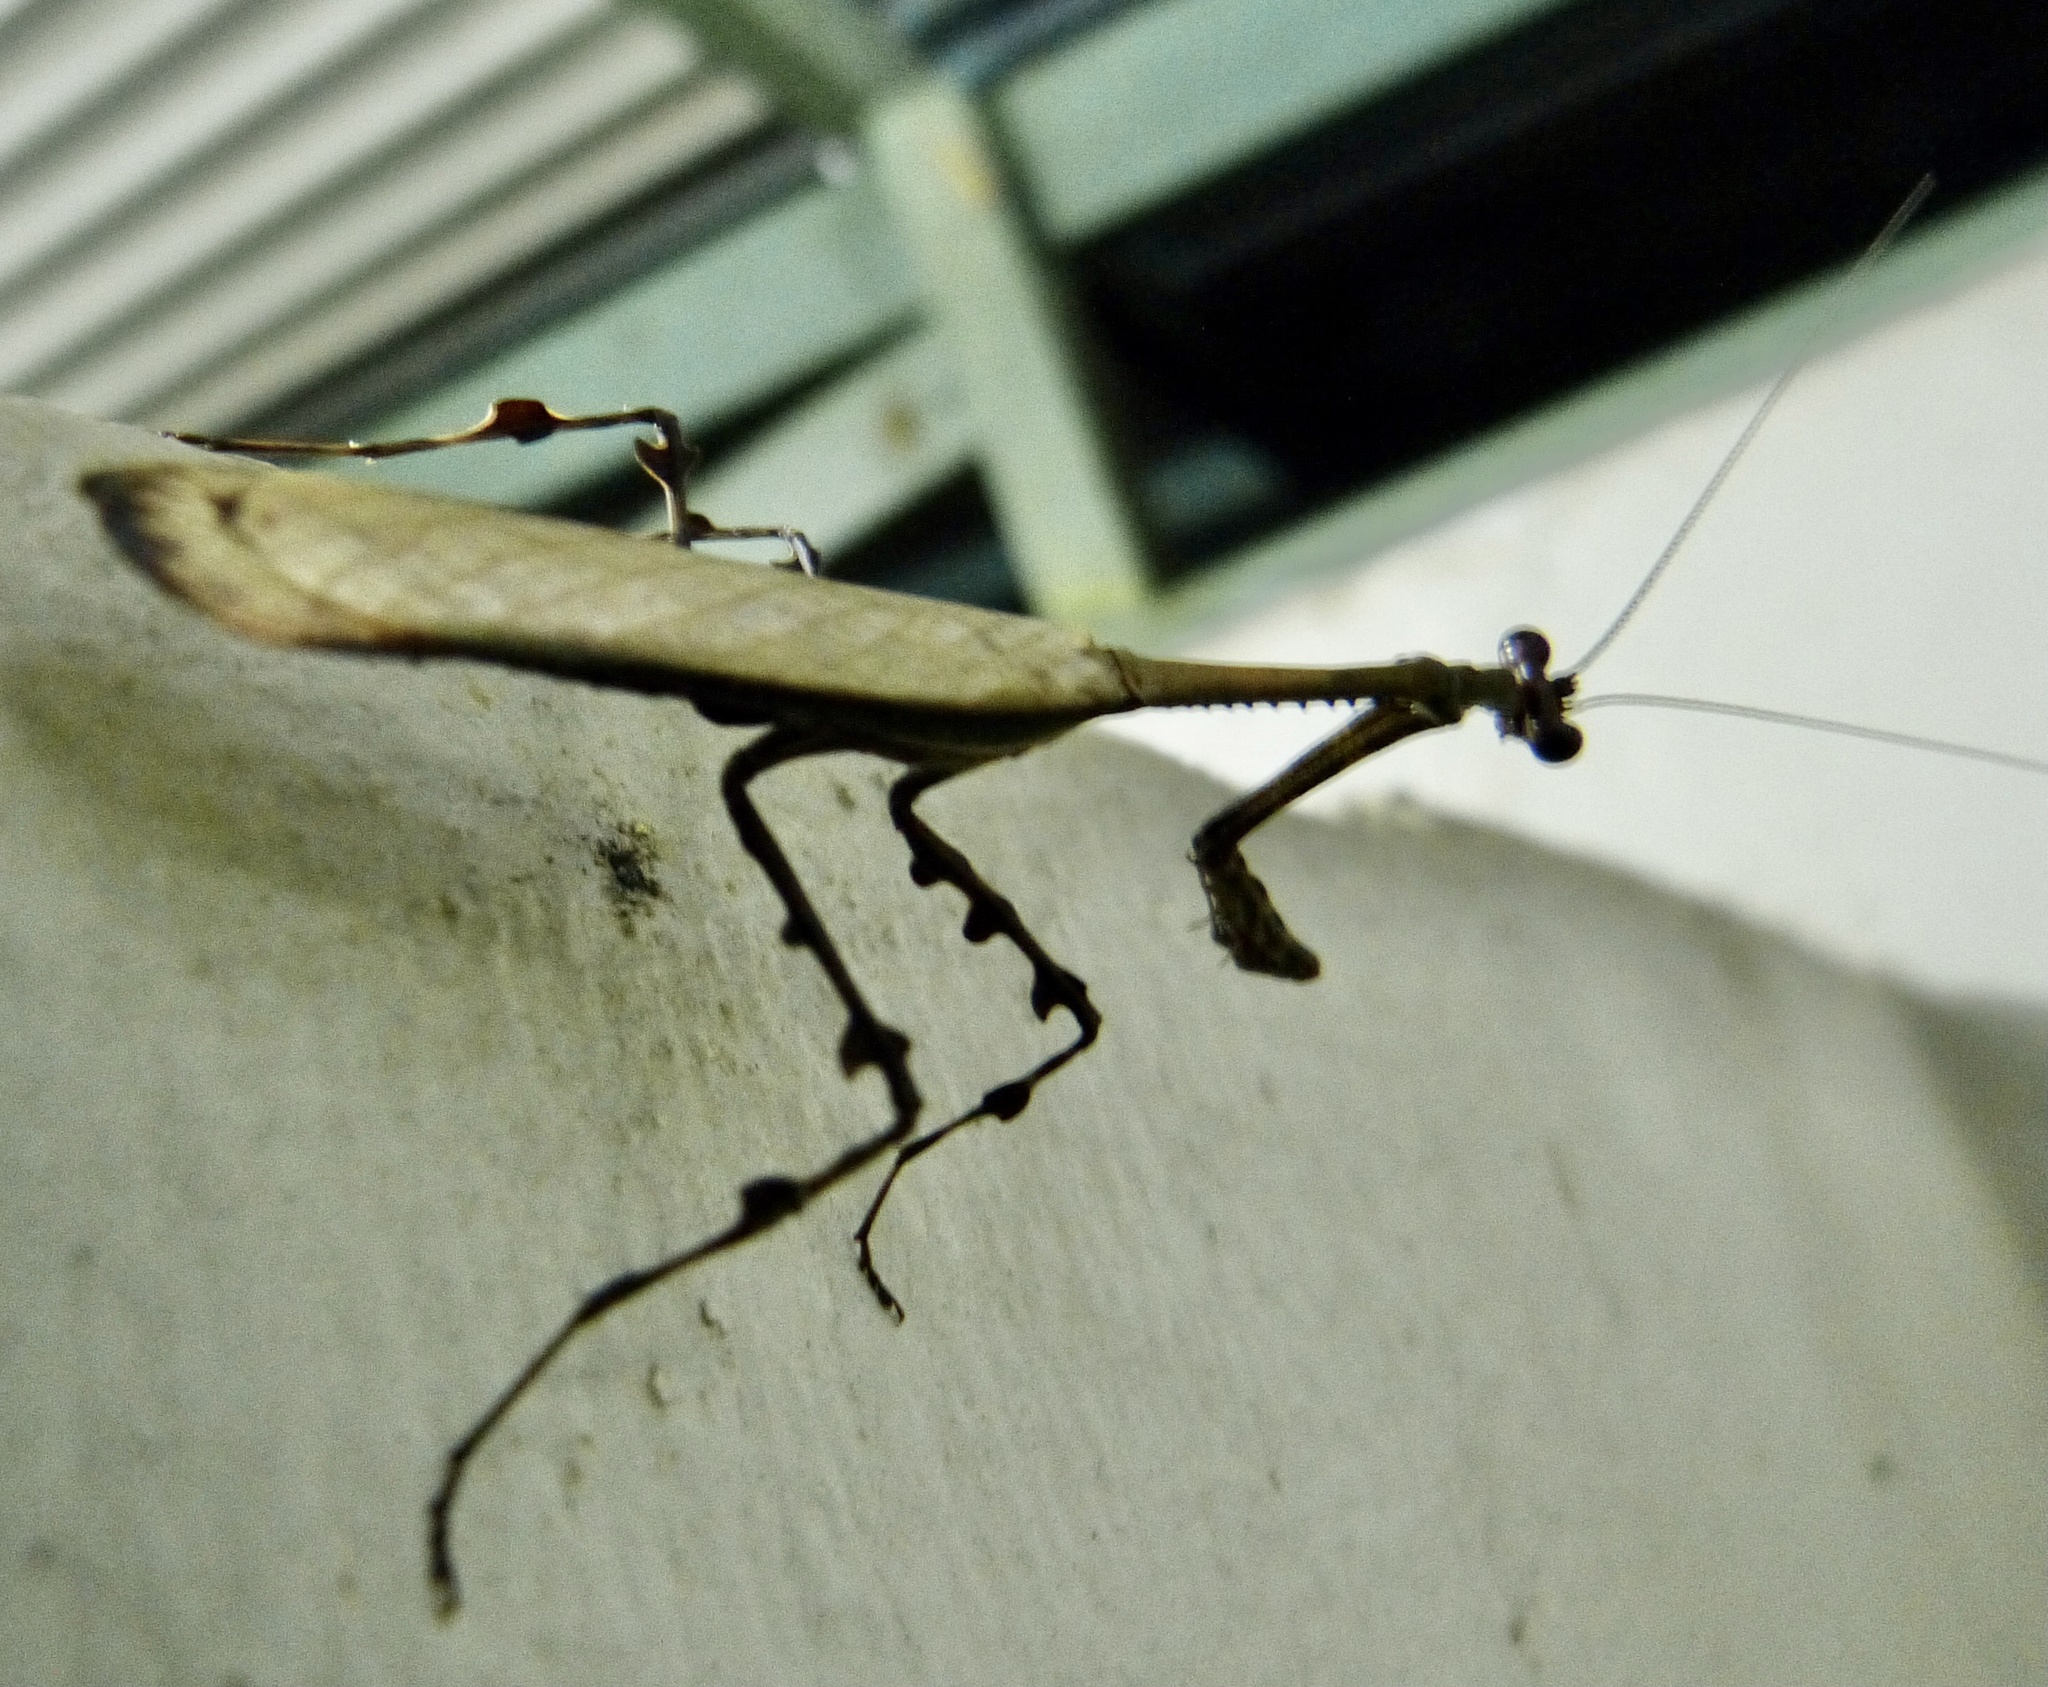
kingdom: Animalia
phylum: Arthropoda
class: Insecta
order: Mantodea
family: Mantidae
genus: Alangularis
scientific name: Alangularis multilobata
